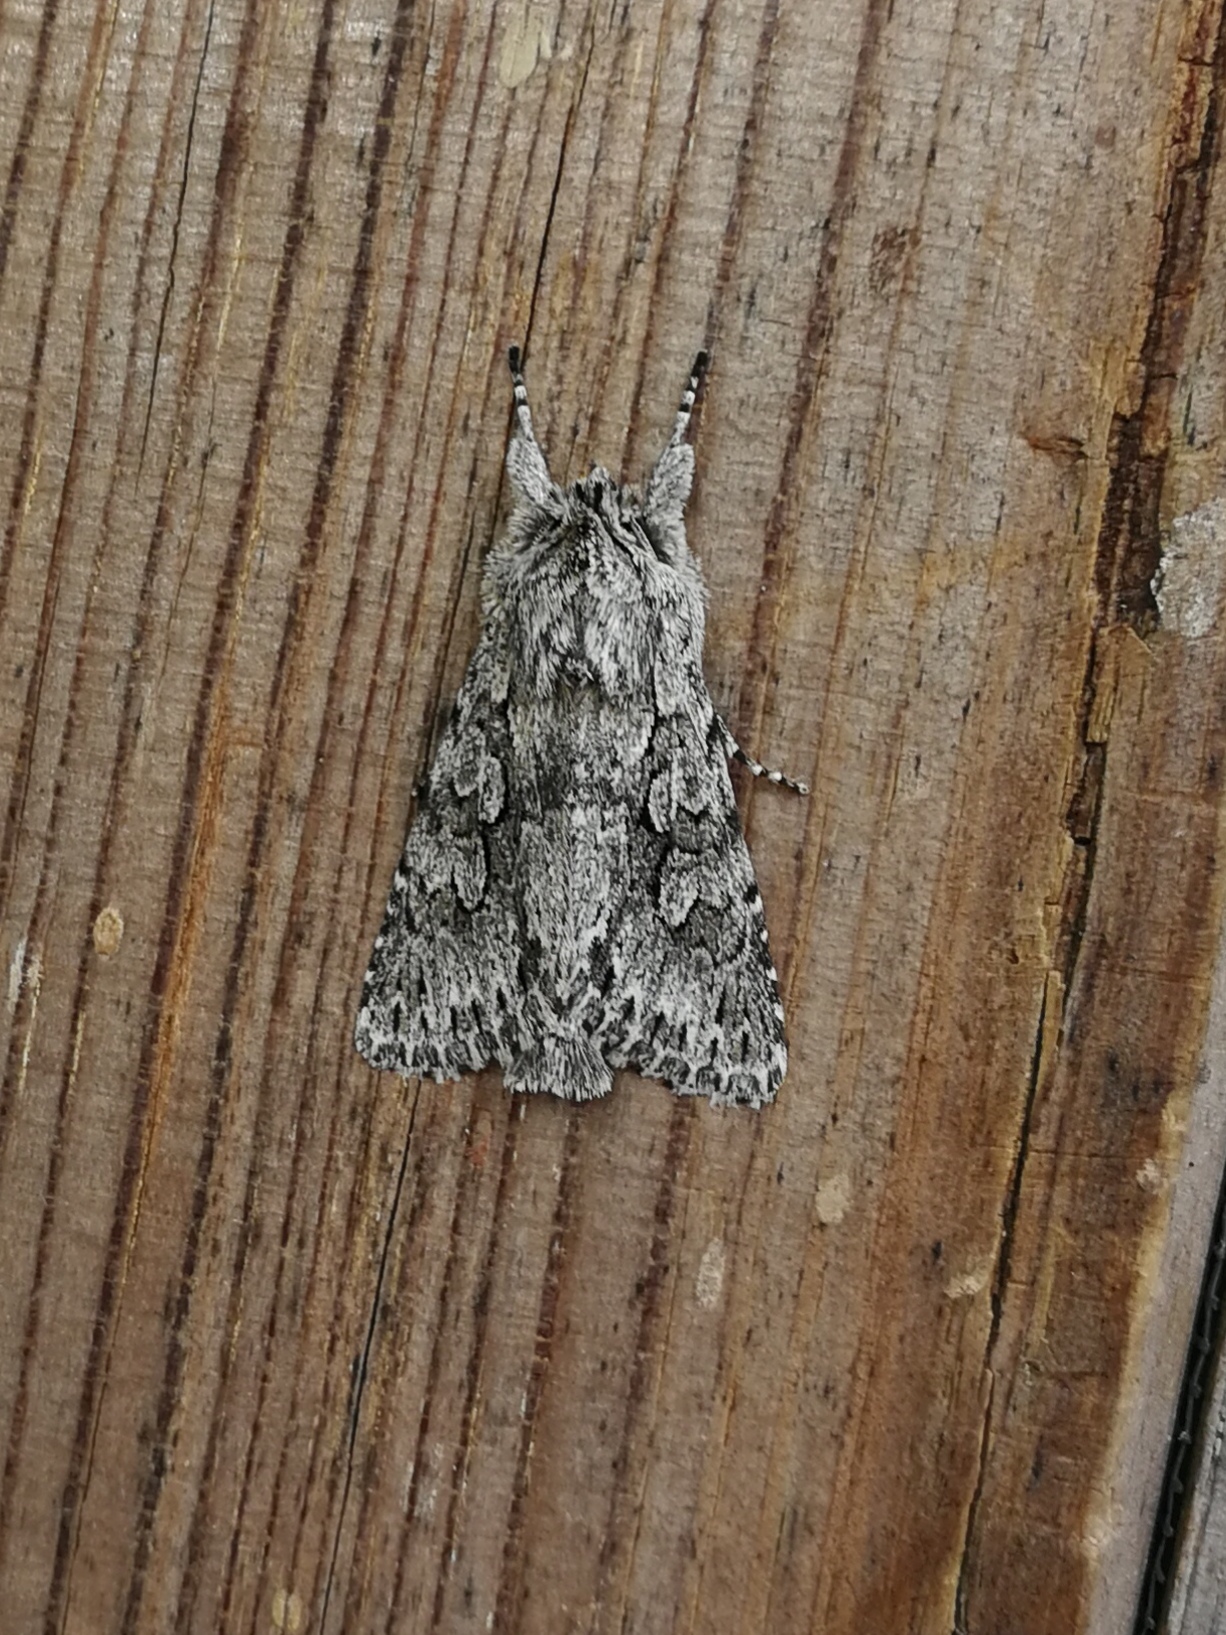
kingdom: Animalia
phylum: Arthropoda
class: Insecta
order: Lepidoptera
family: Noctuidae
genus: Xylocampa
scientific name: Xylocampa areola
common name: Early grey
